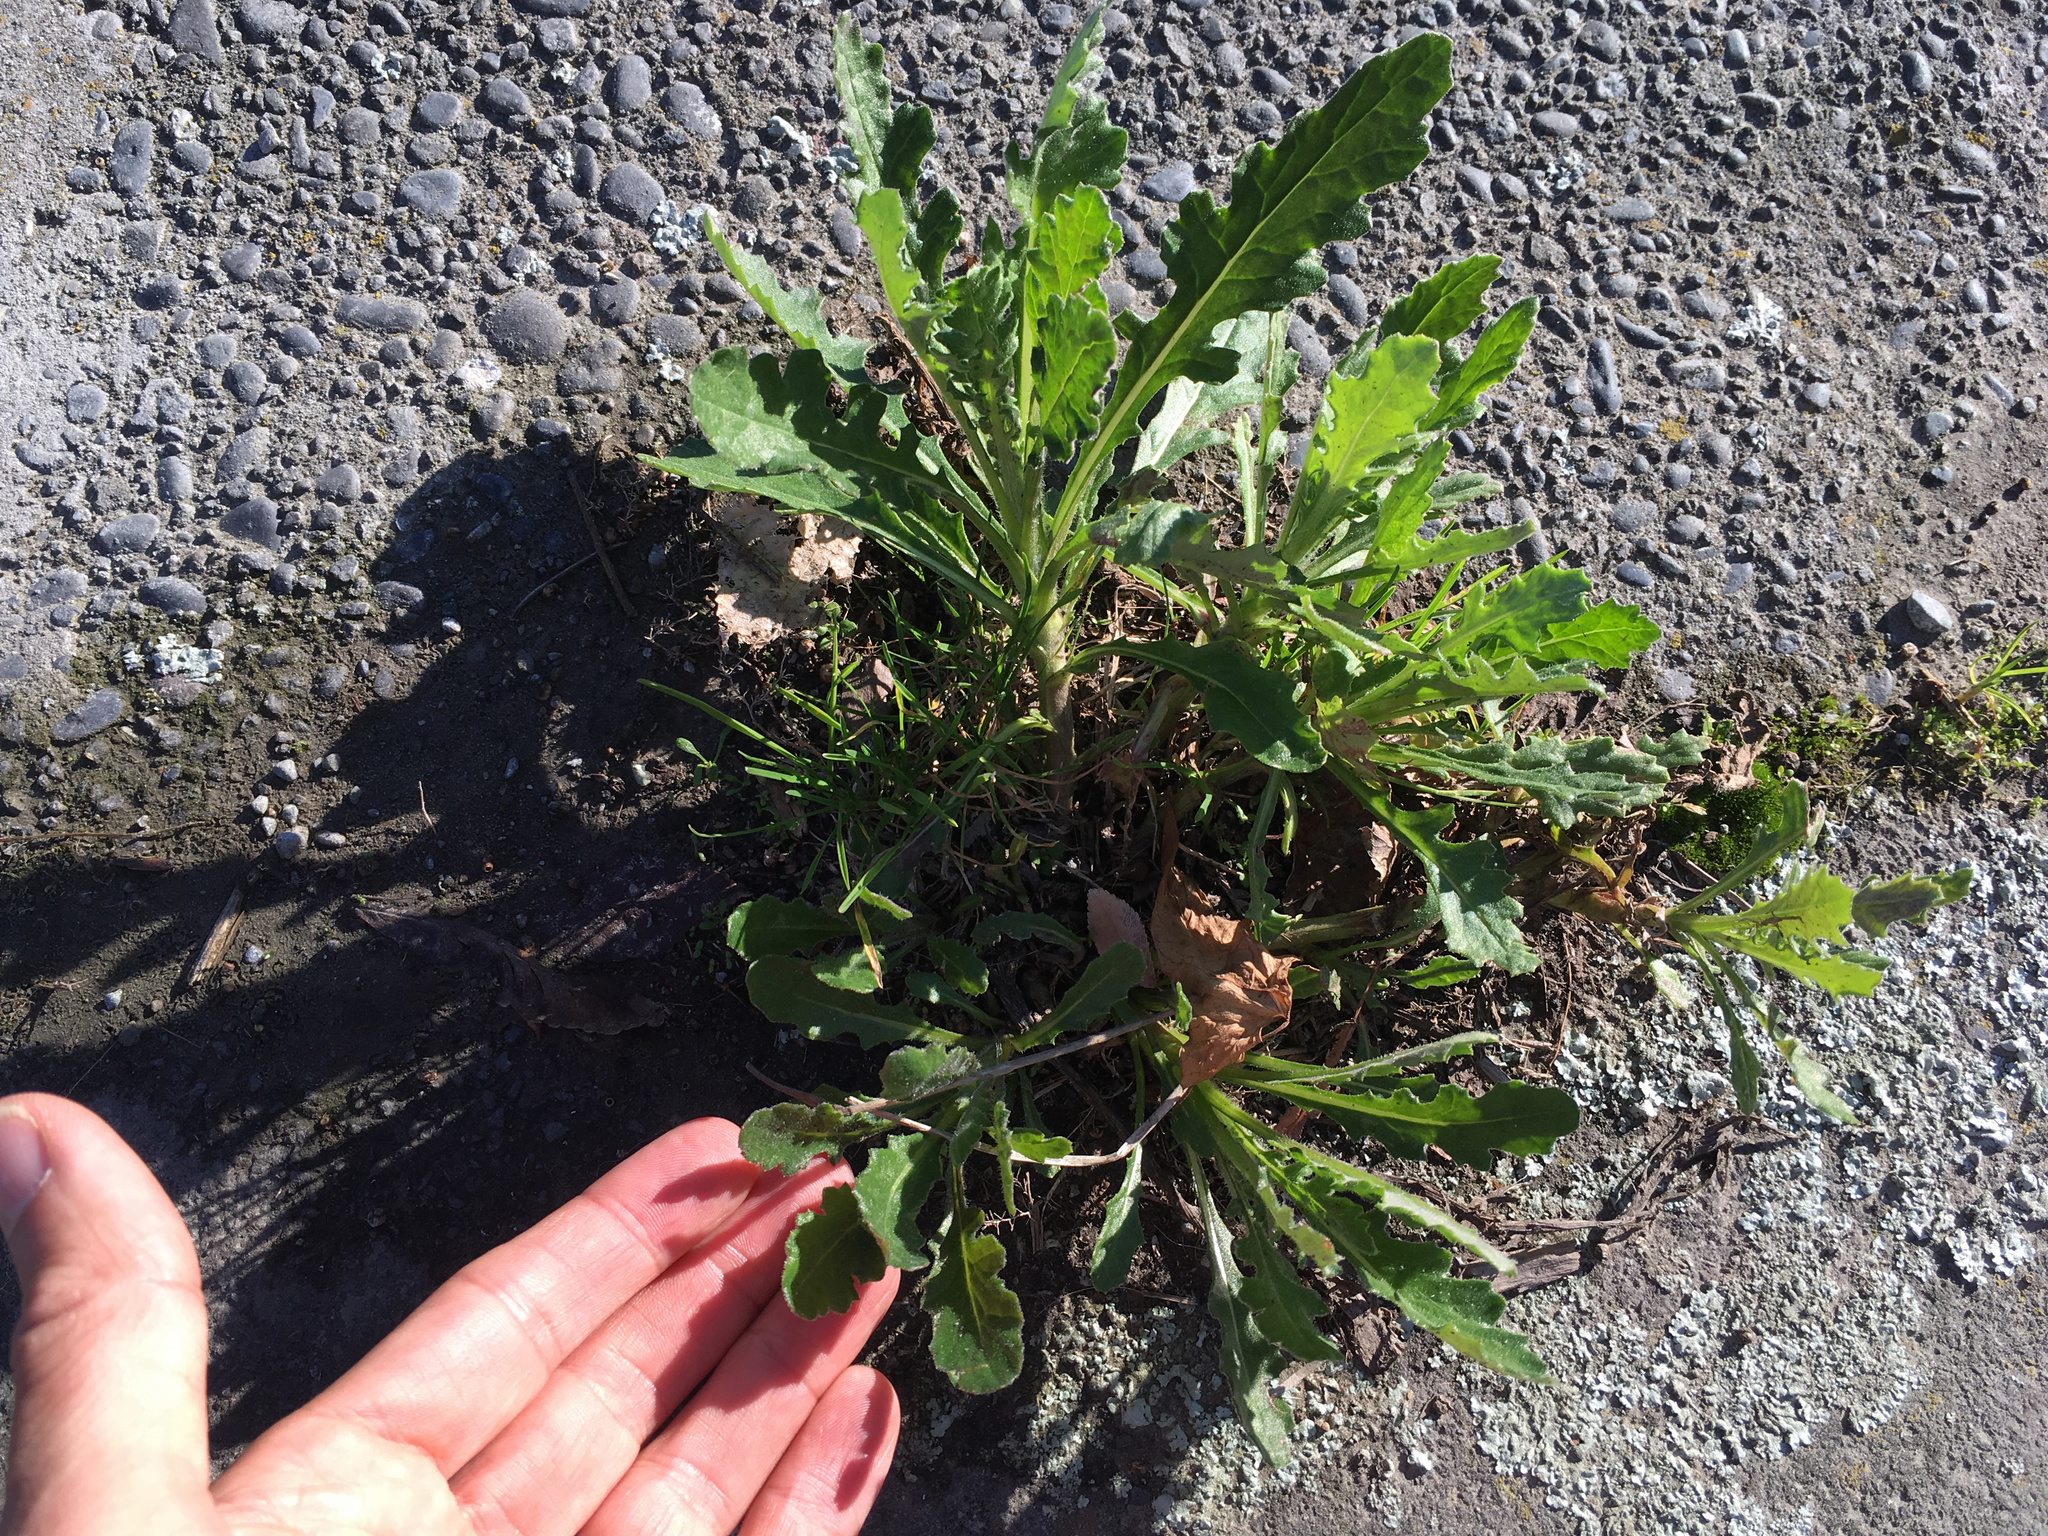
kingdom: Plantae
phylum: Tracheophyta
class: Magnoliopsida
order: Asterales
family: Asteraceae
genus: Senecio
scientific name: Senecio glomeratus
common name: Cutleaf burnweed
